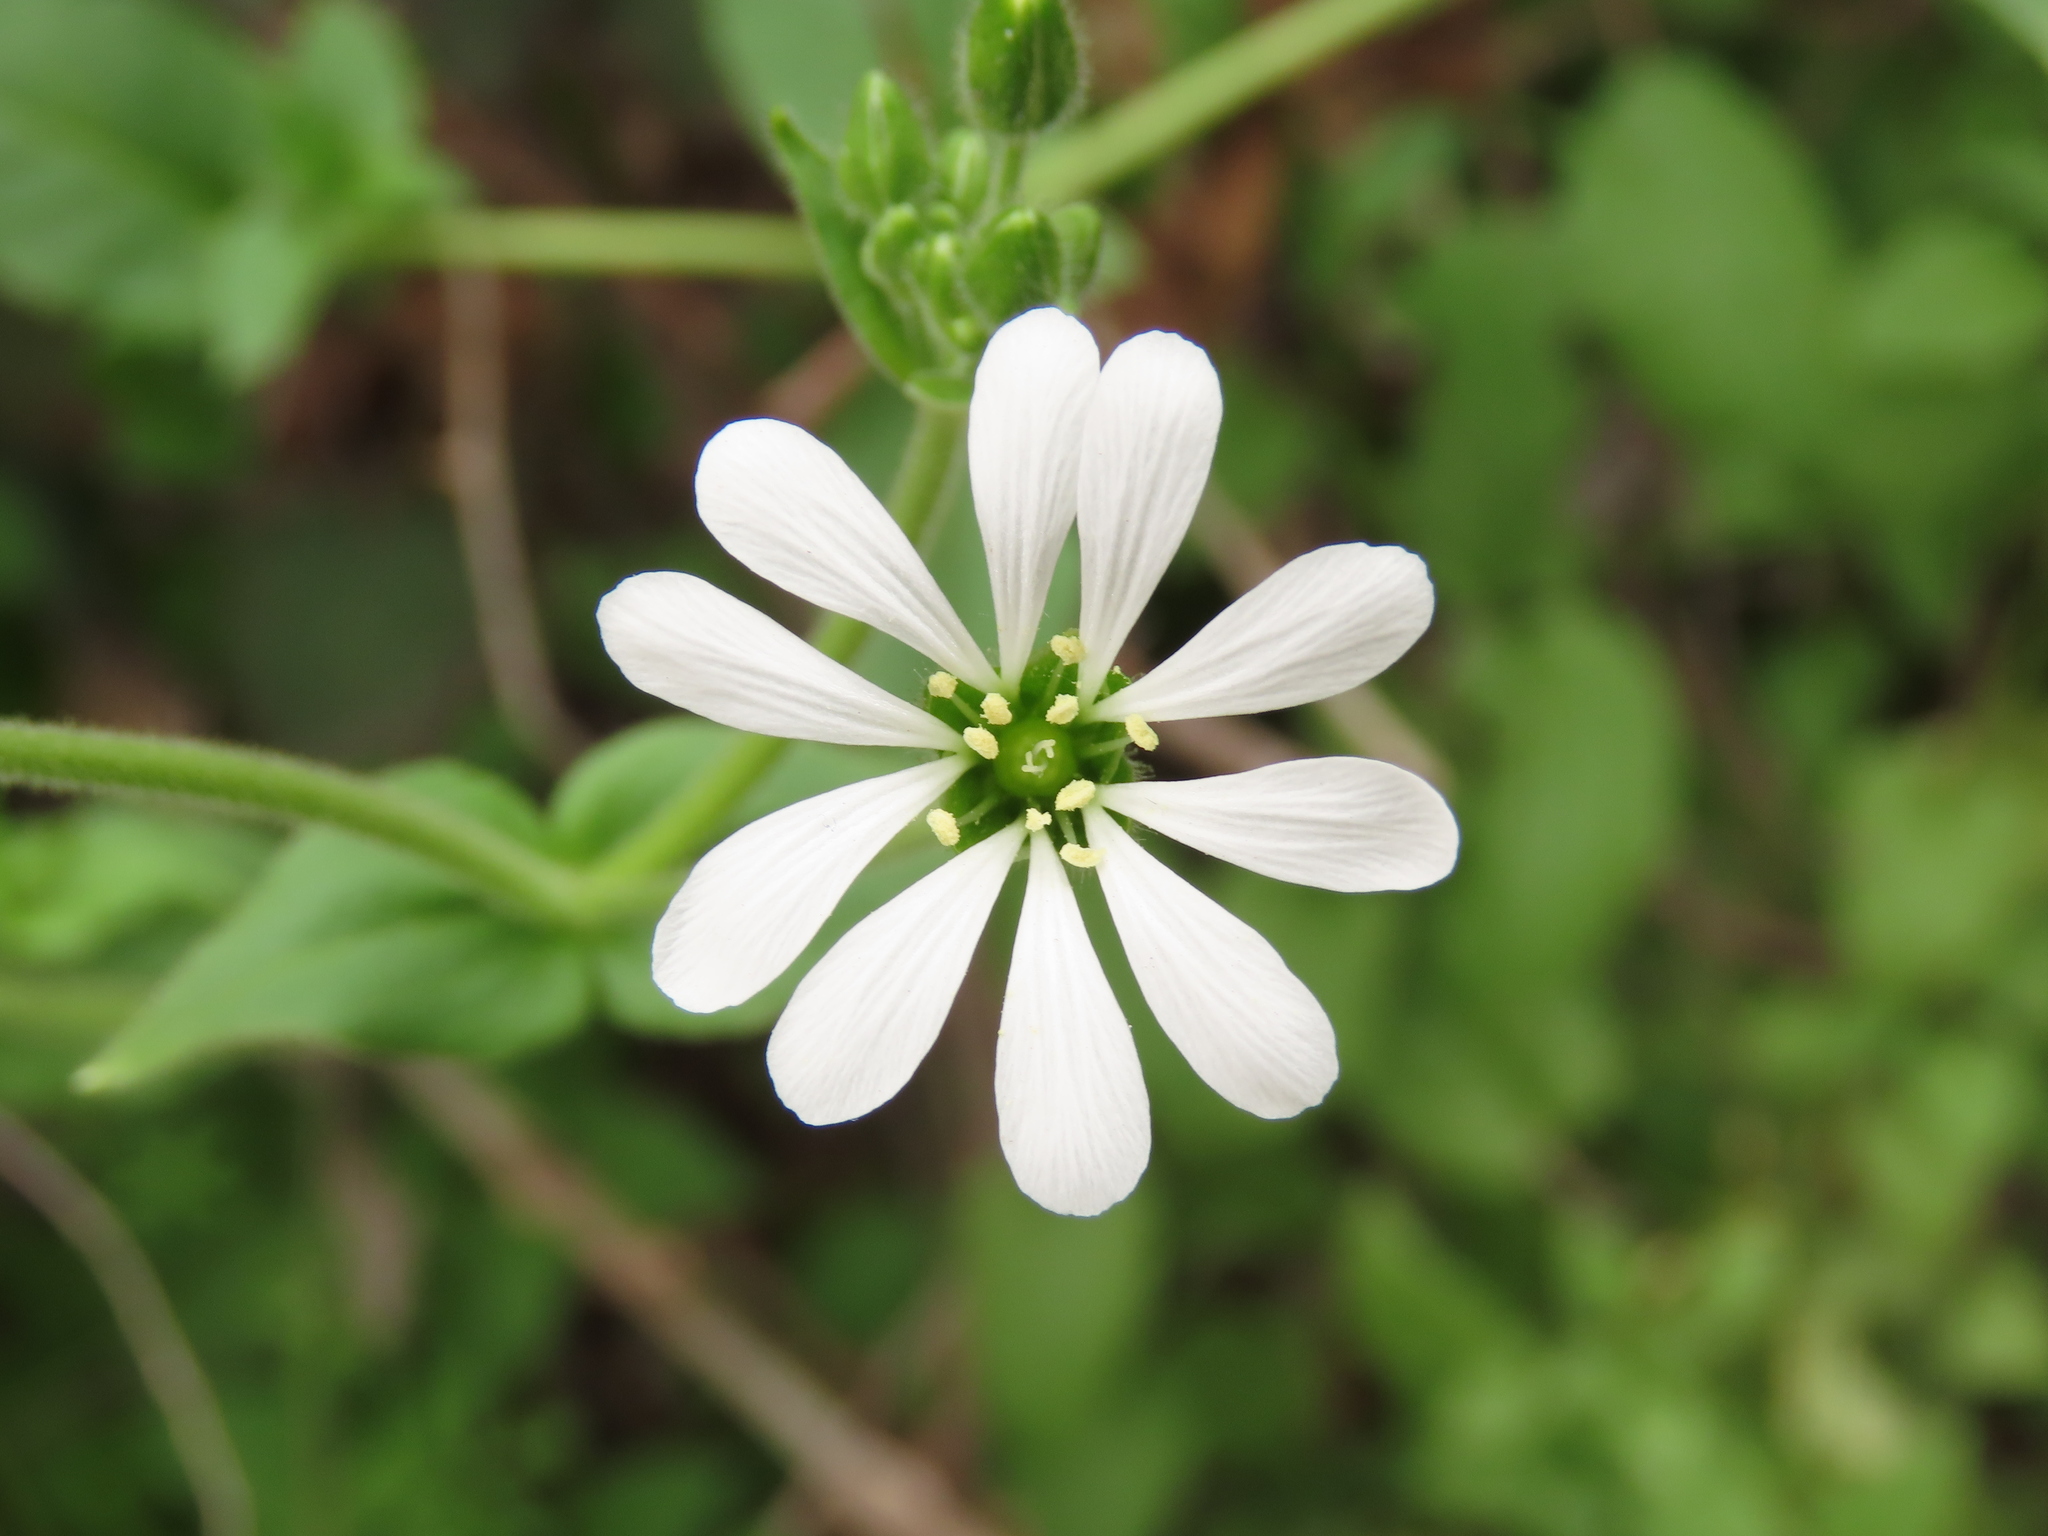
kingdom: Plantae
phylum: Tracheophyta
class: Magnoliopsida
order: Caryophyllales
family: Caryophyllaceae
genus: Stellaria
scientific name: Stellaria chilensis
